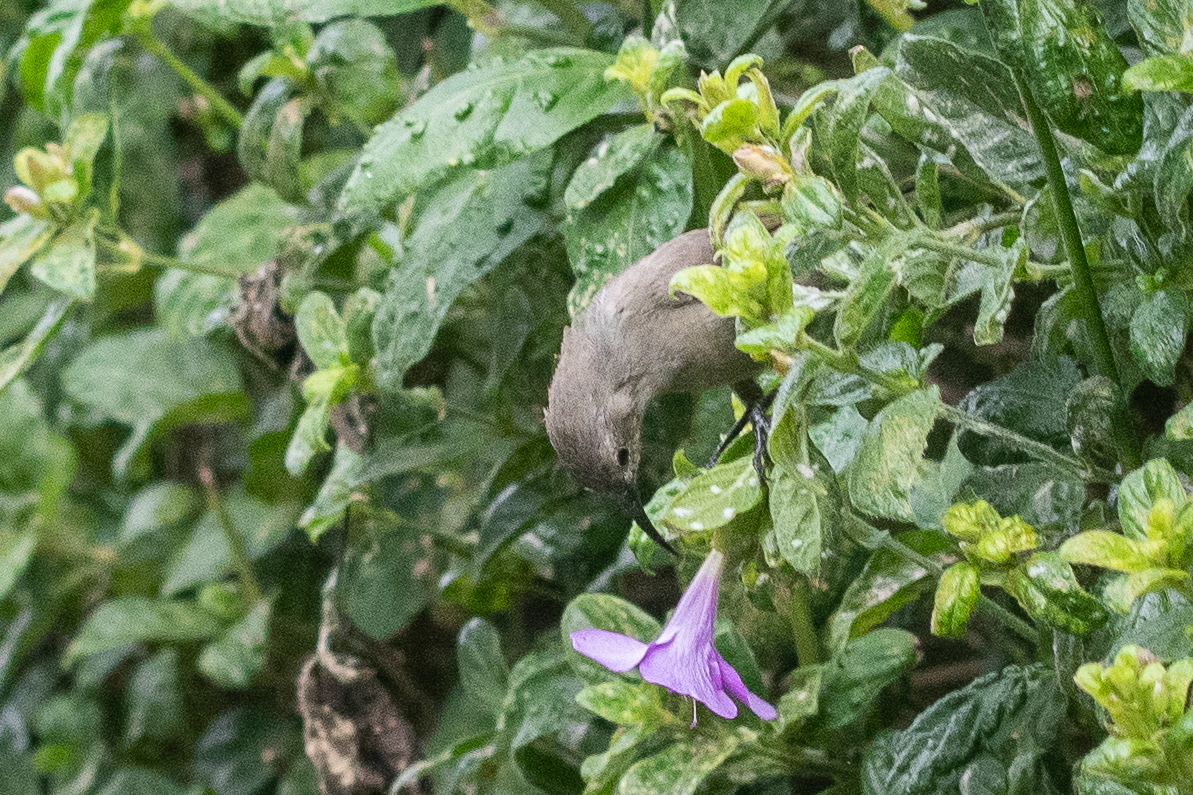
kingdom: Animalia
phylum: Chordata
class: Aves
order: Passeriformes
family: Nectariniidae
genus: Cinnyris
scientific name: Cinnyris chalybeus
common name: Southern double-collared sunbird
